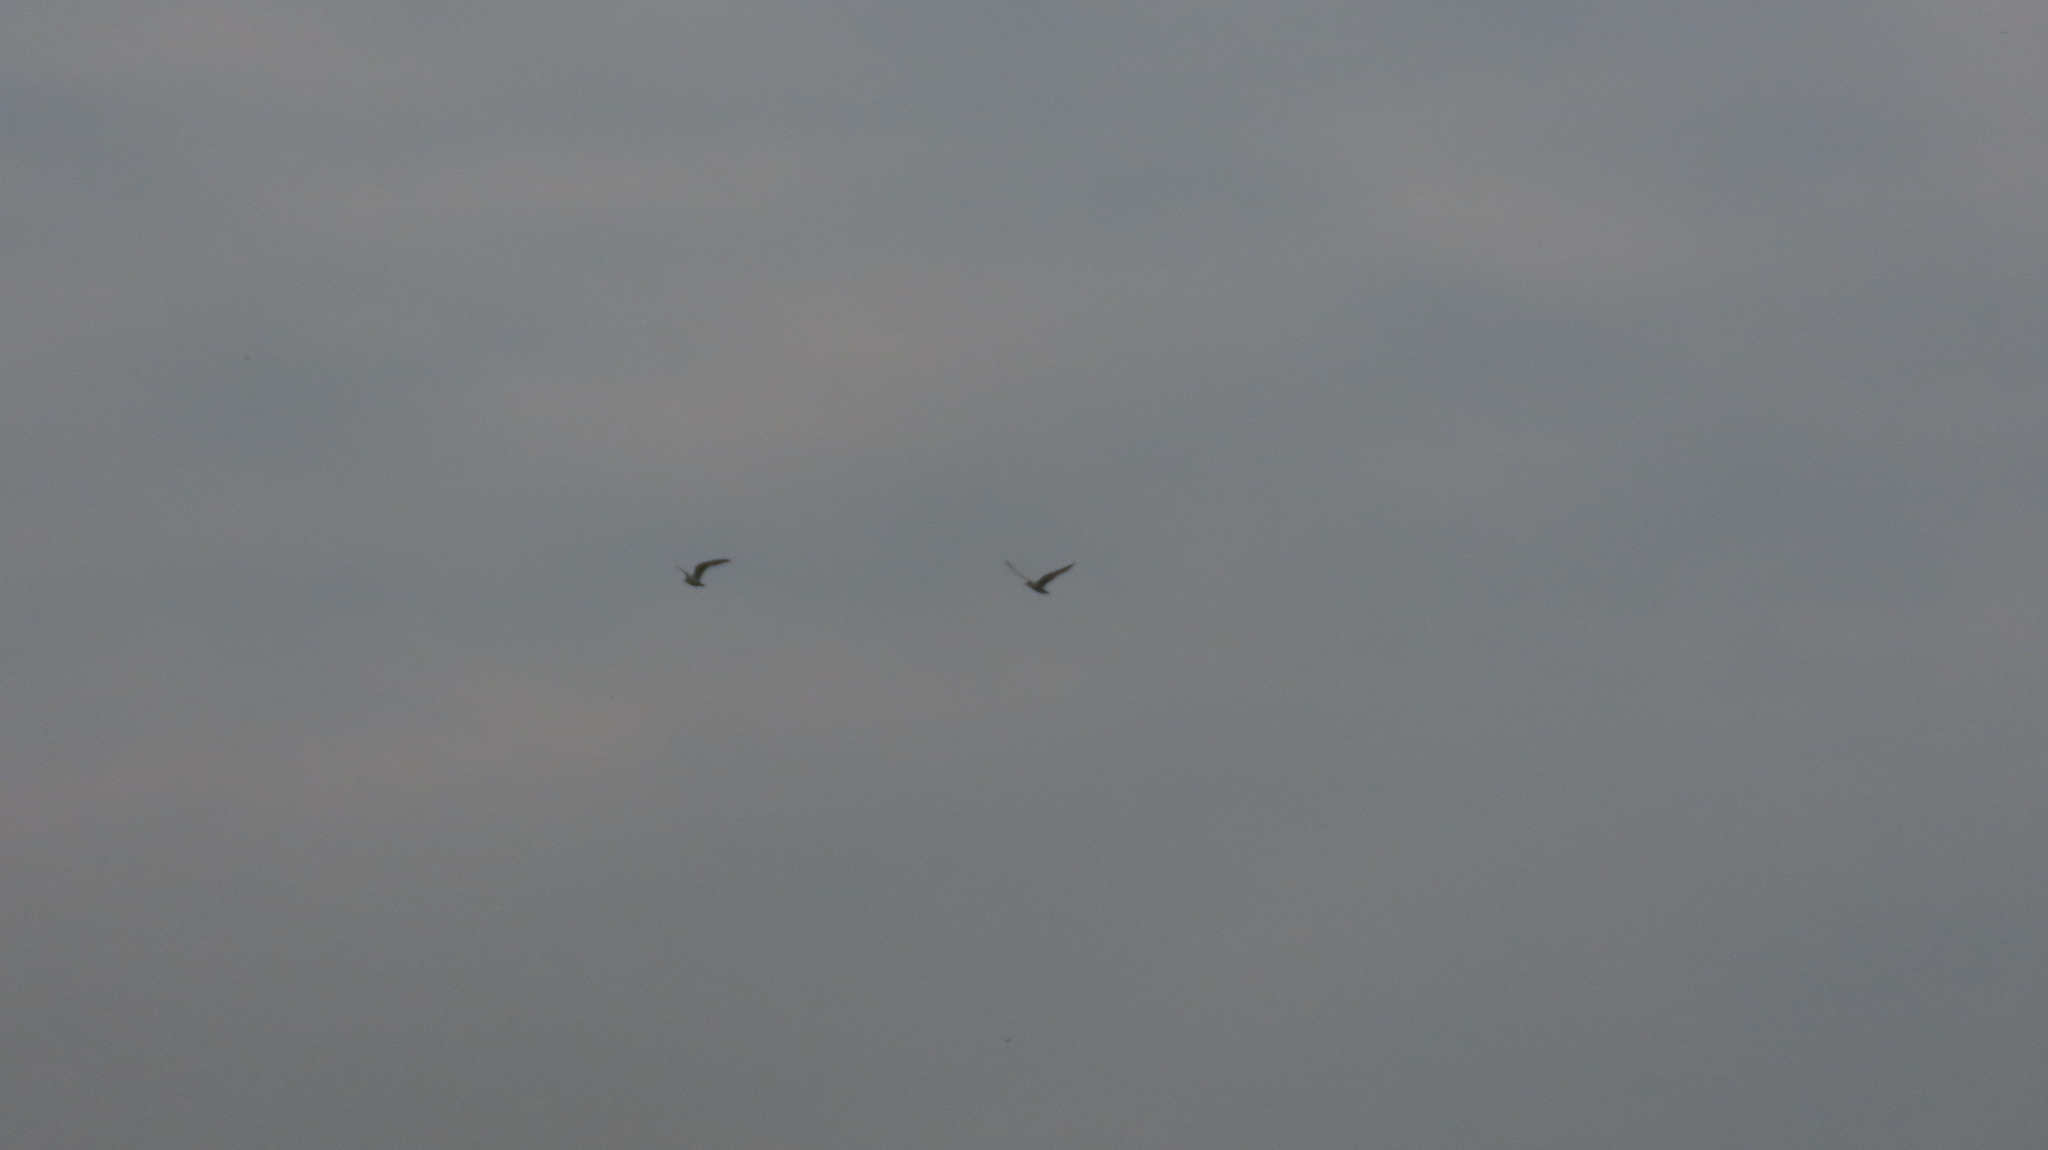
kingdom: Animalia
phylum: Chordata
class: Aves
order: Charadriiformes
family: Laridae
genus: Chlidonias
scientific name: Chlidonias hybrida
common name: Whiskered tern
